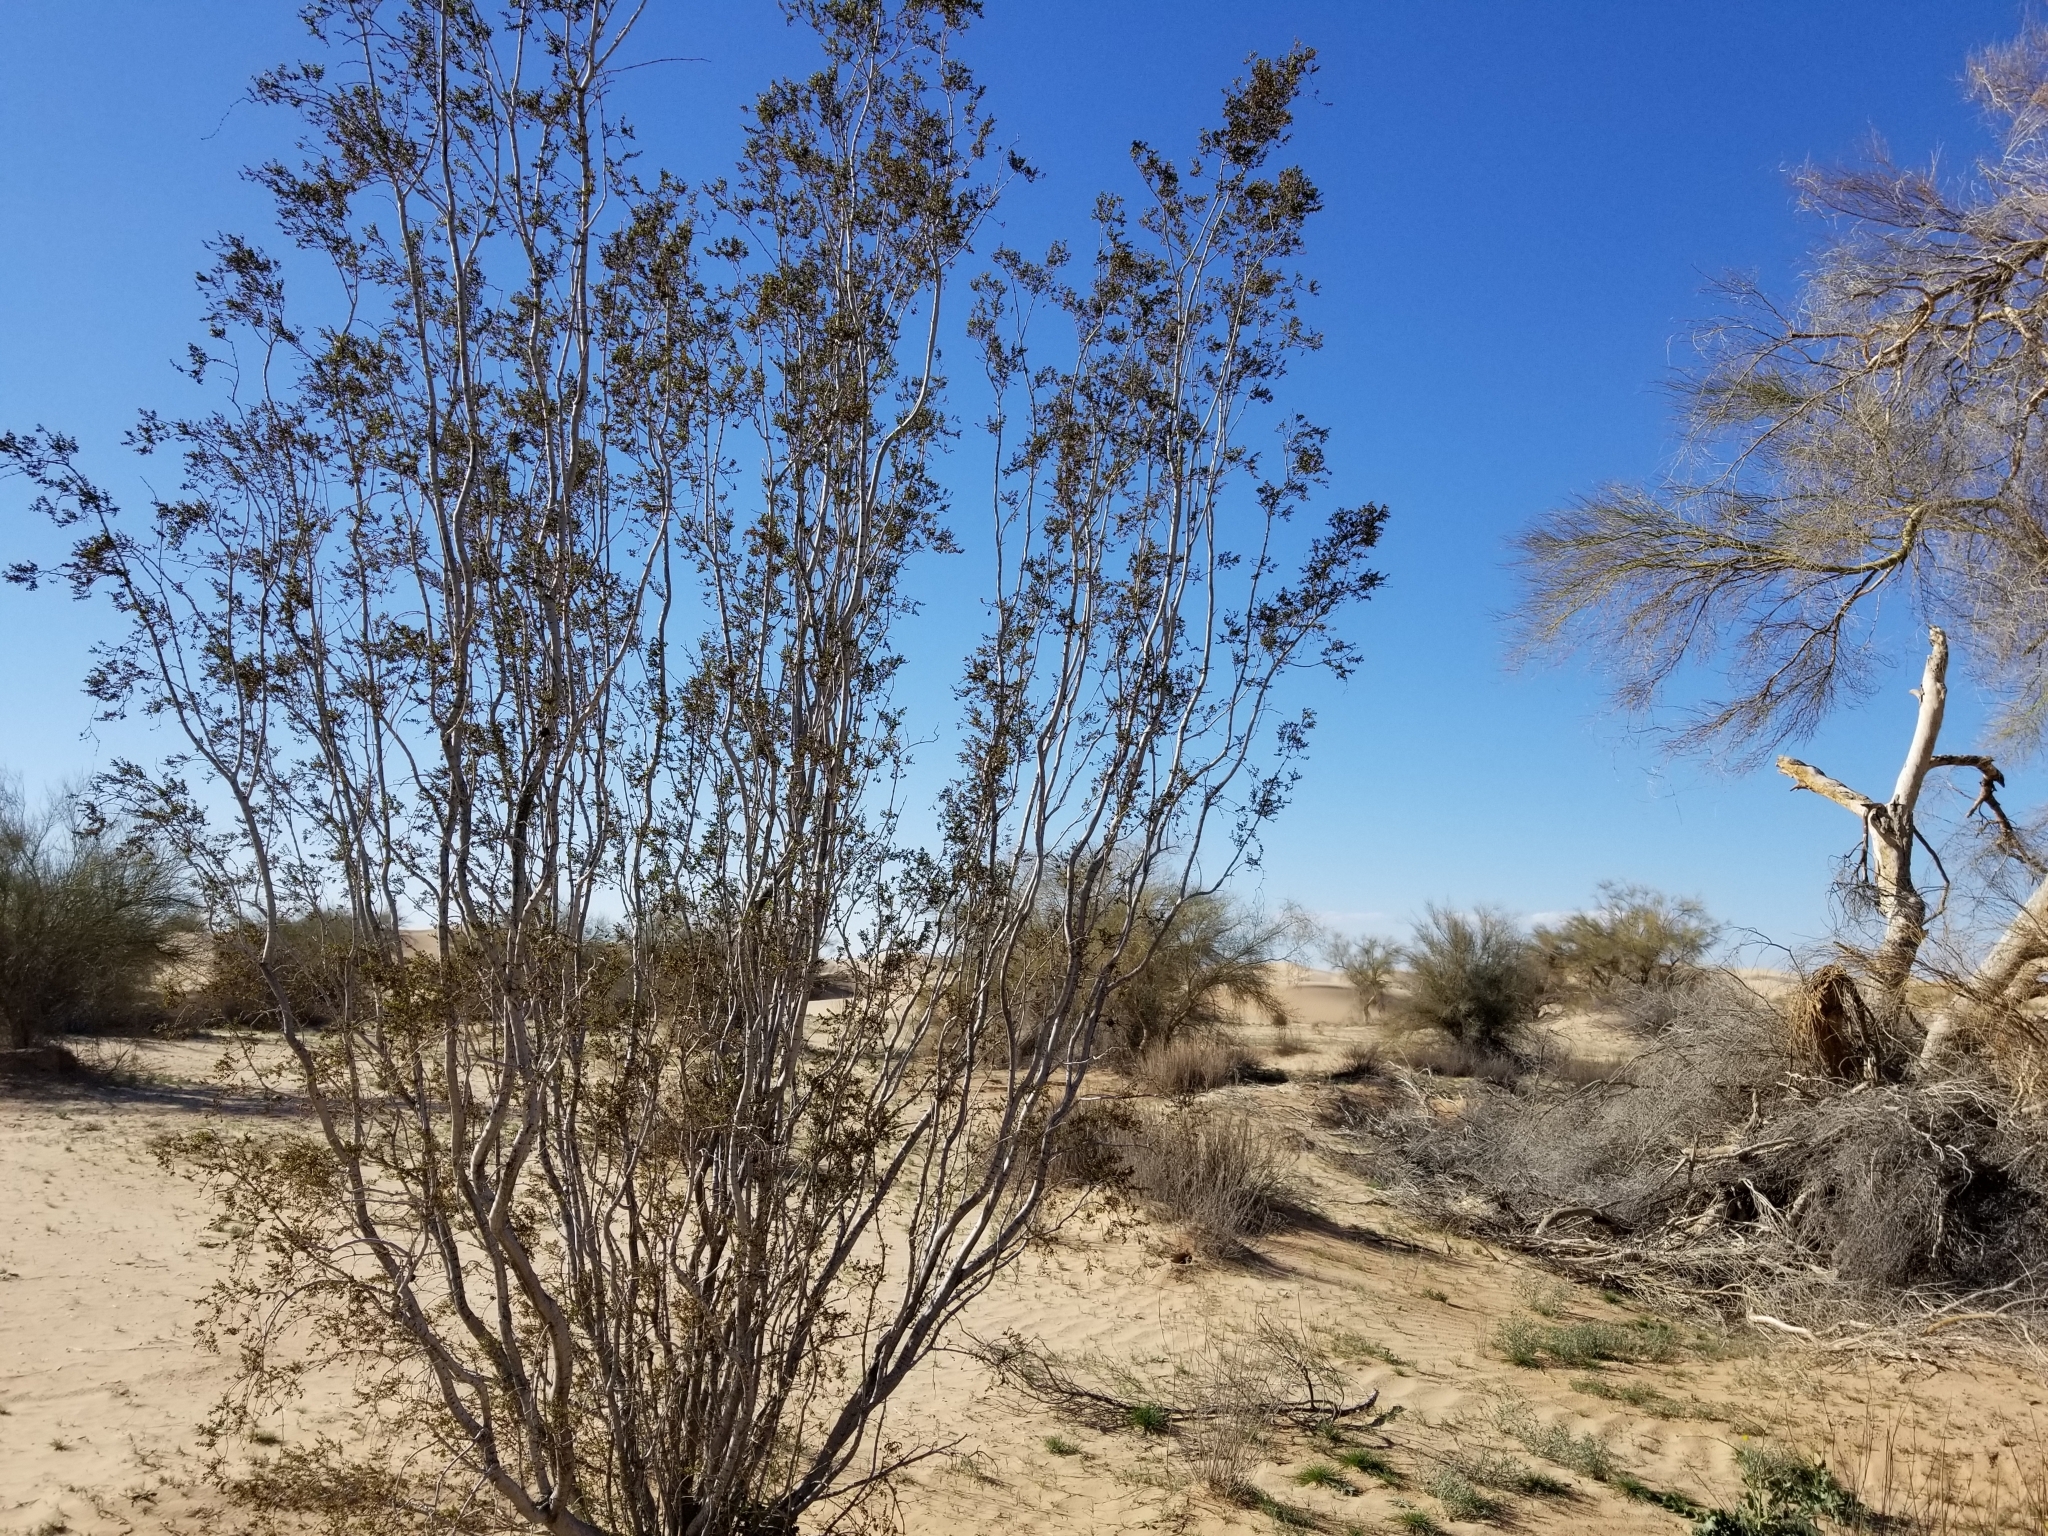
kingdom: Plantae
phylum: Tracheophyta
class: Magnoliopsida
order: Zygophyllales
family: Zygophyllaceae
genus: Larrea
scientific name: Larrea tridentata
